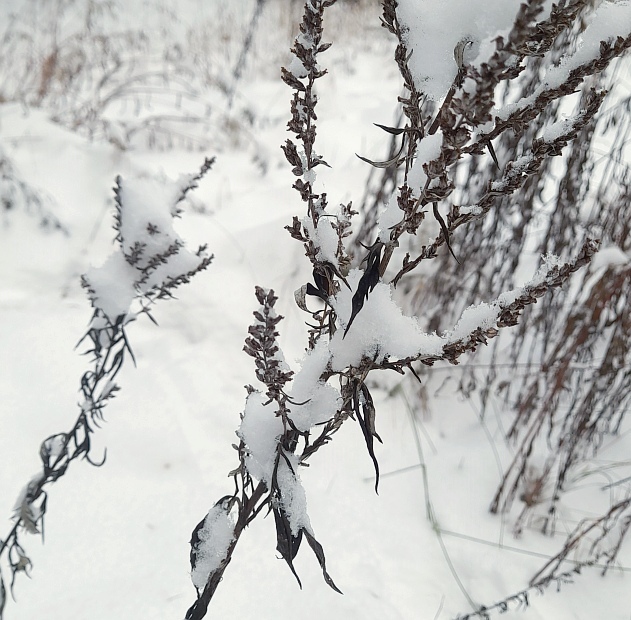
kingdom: Plantae
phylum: Tracheophyta
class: Magnoliopsida
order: Asterales
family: Asteraceae
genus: Artemisia
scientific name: Artemisia vulgaris
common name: Mugwort
